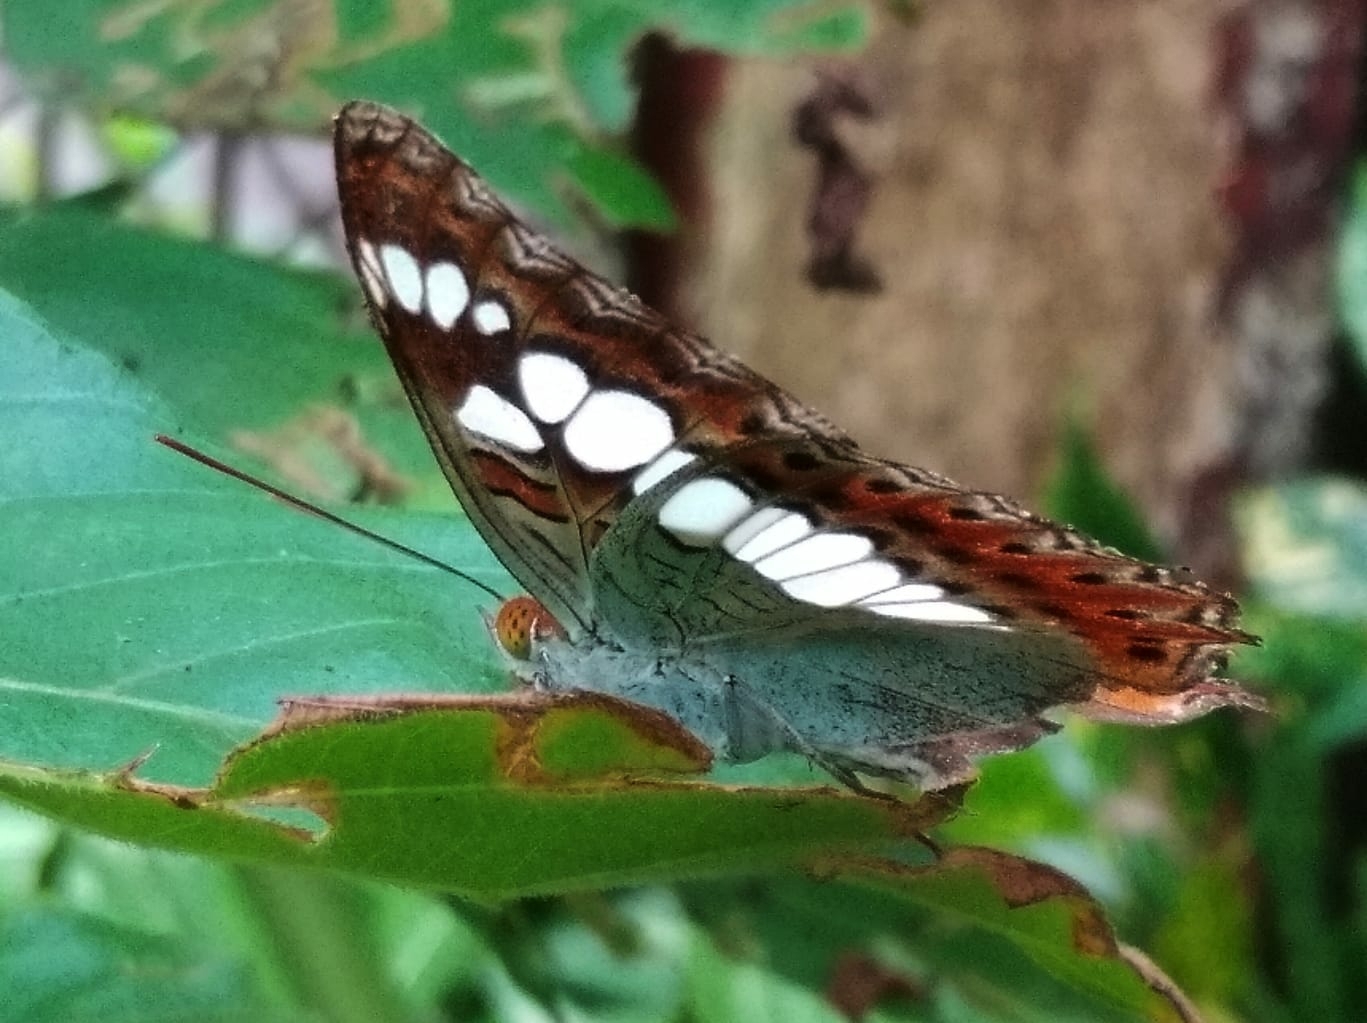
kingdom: Animalia
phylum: Arthropoda
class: Insecta
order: Lepidoptera
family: Nymphalidae
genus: Limenitis
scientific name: Limenitis Moduza procris
